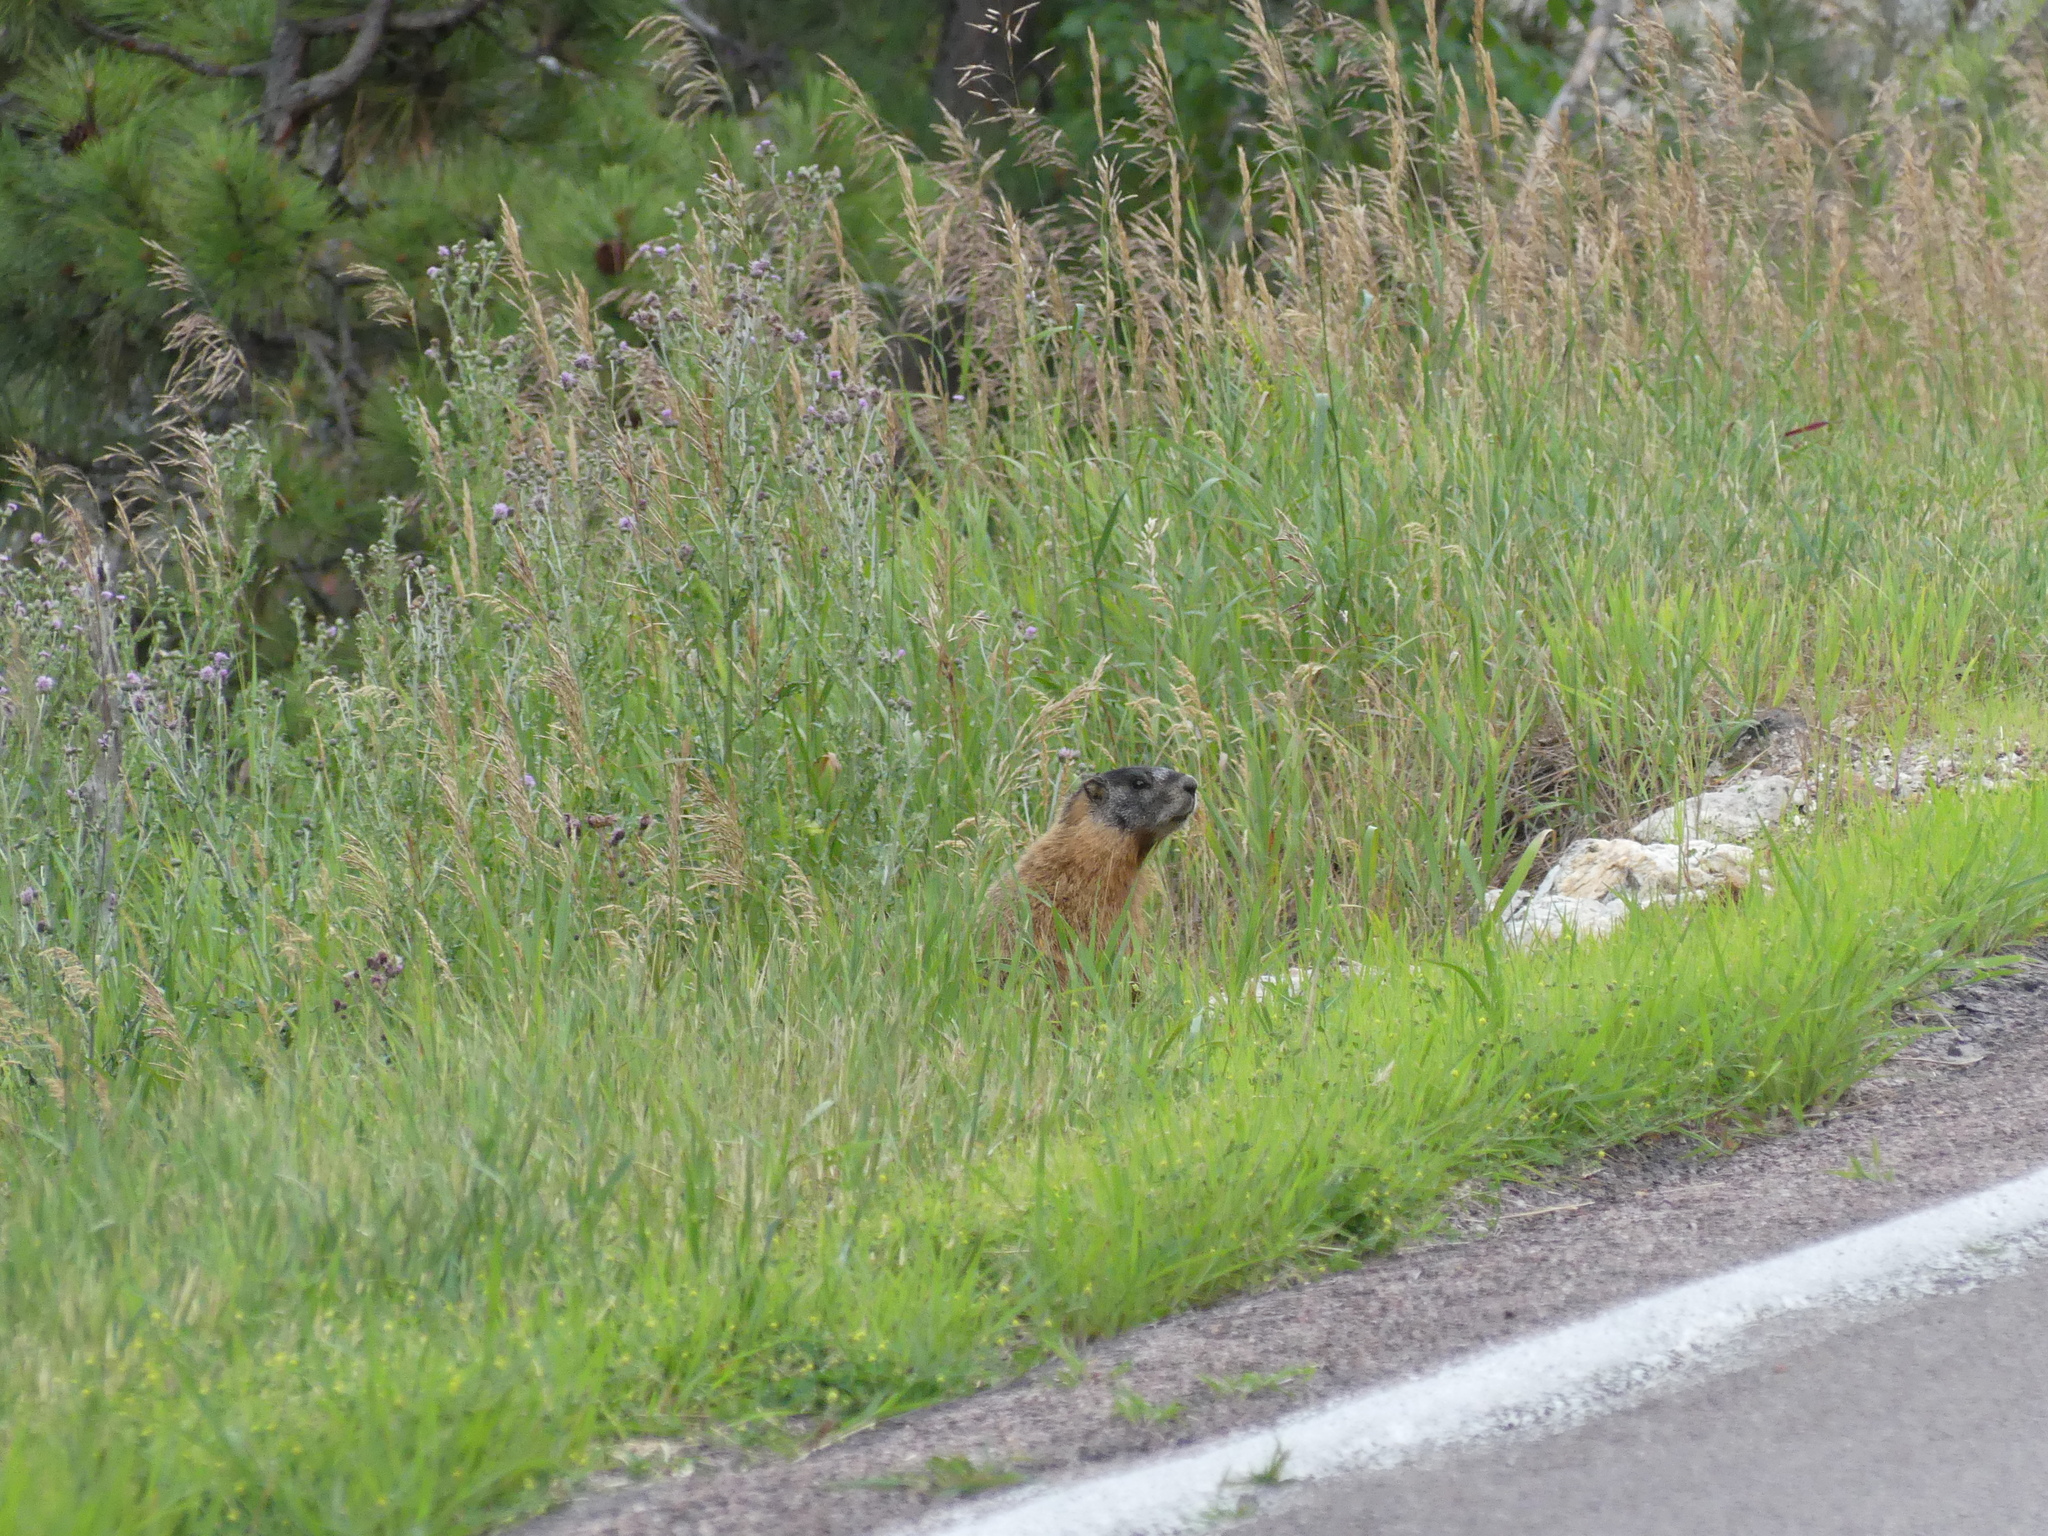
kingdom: Animalia
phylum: Chordata
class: Mammalia
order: Rodentia
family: Sciuridae
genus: Marmota
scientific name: Marmota flaviventris
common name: Yellow-bellied marmot
